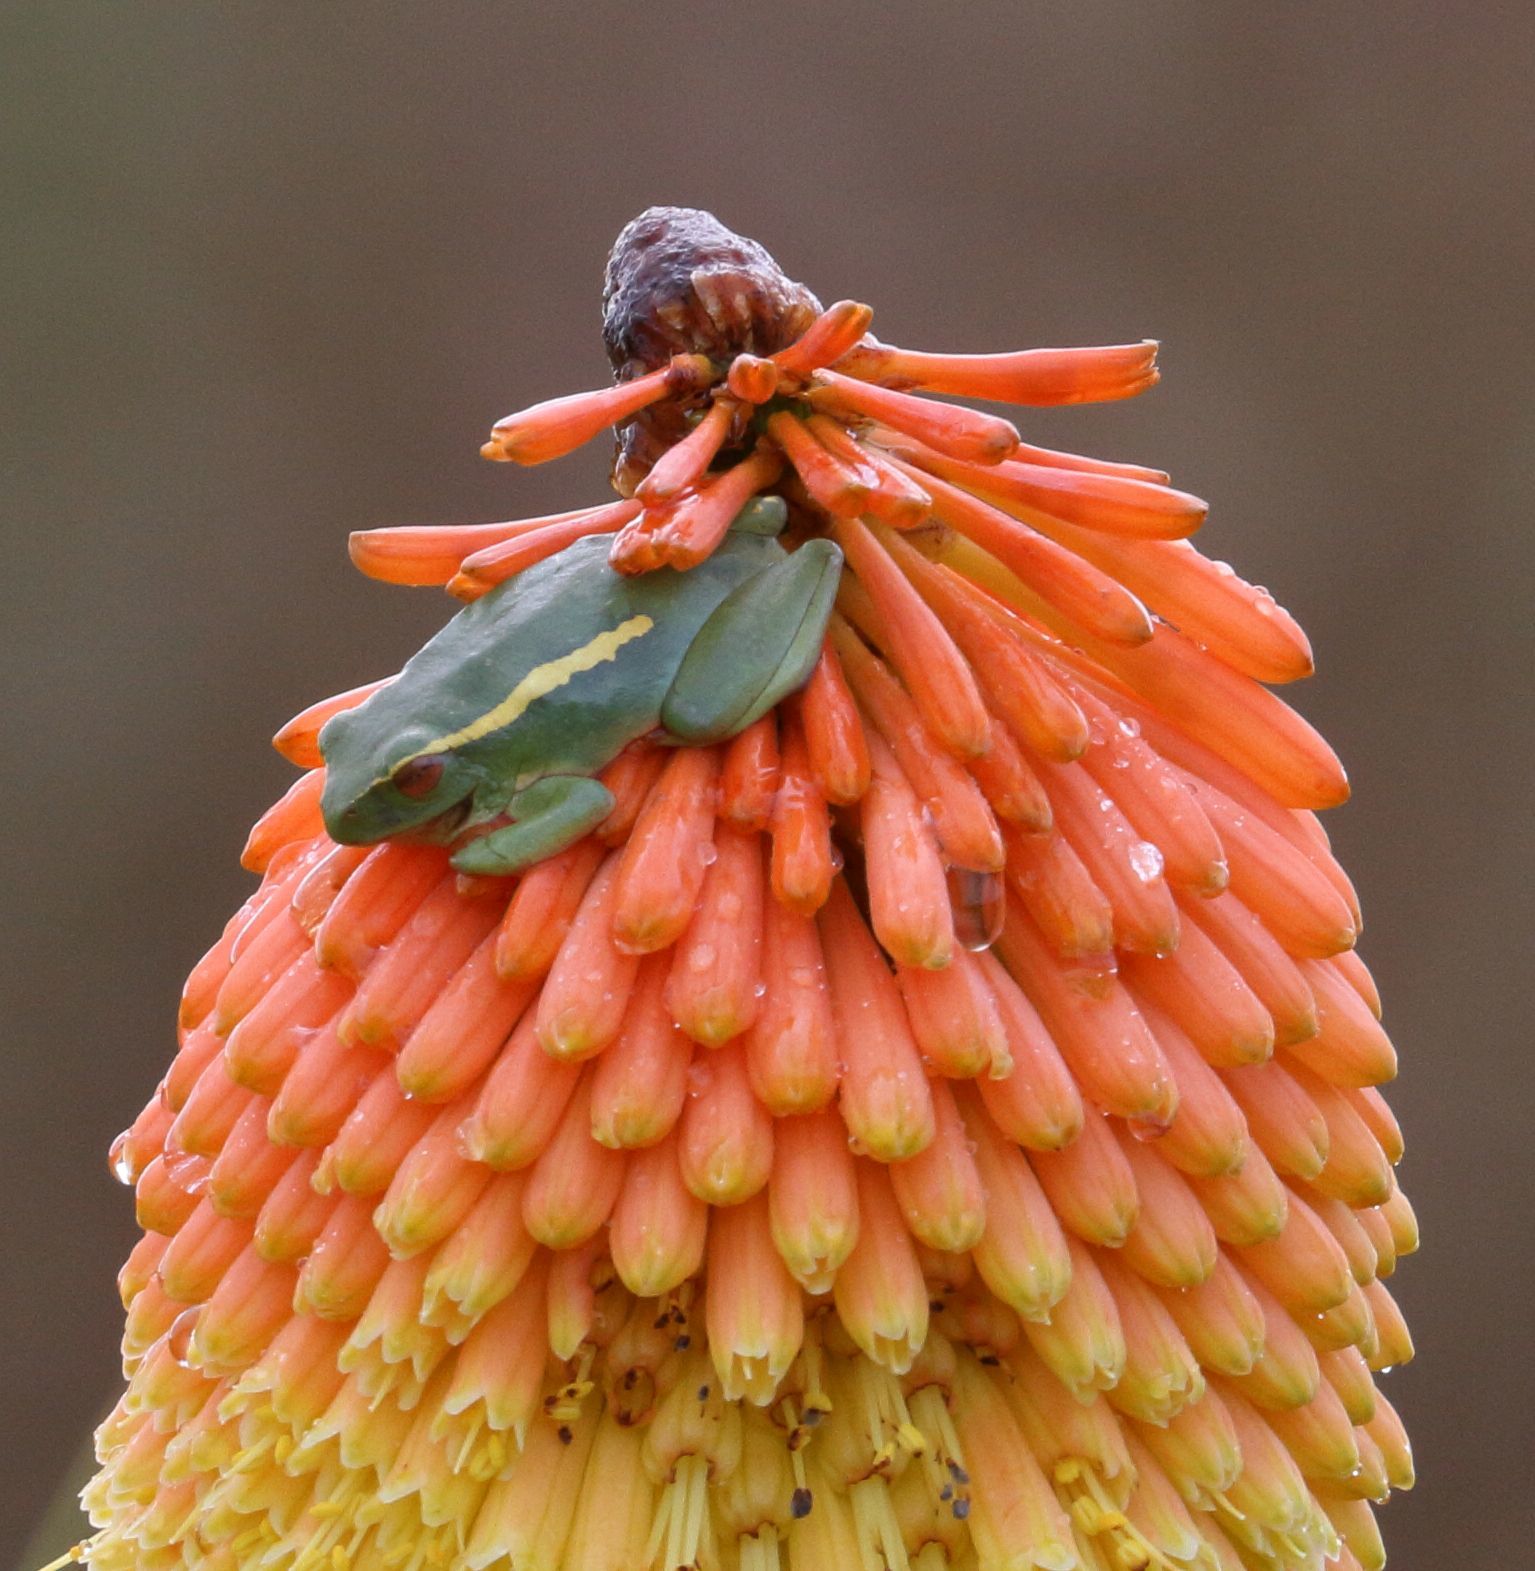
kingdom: Animalia
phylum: Chordata
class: Amphibia
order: Anura
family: Hyperoliidae
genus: Hyperolius
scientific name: Hyperolius semidiscus
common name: Yellow-striped reed frog
